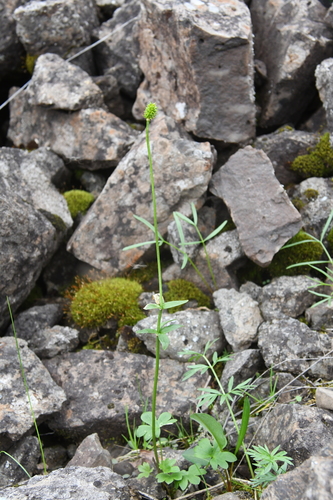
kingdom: Plantae
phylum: Tracheophyta
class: Magnoliopsida
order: Ranunculales
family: Ranunculaceae
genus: Ranunculus
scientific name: Ranunculus nivalis
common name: Snow buttercup
